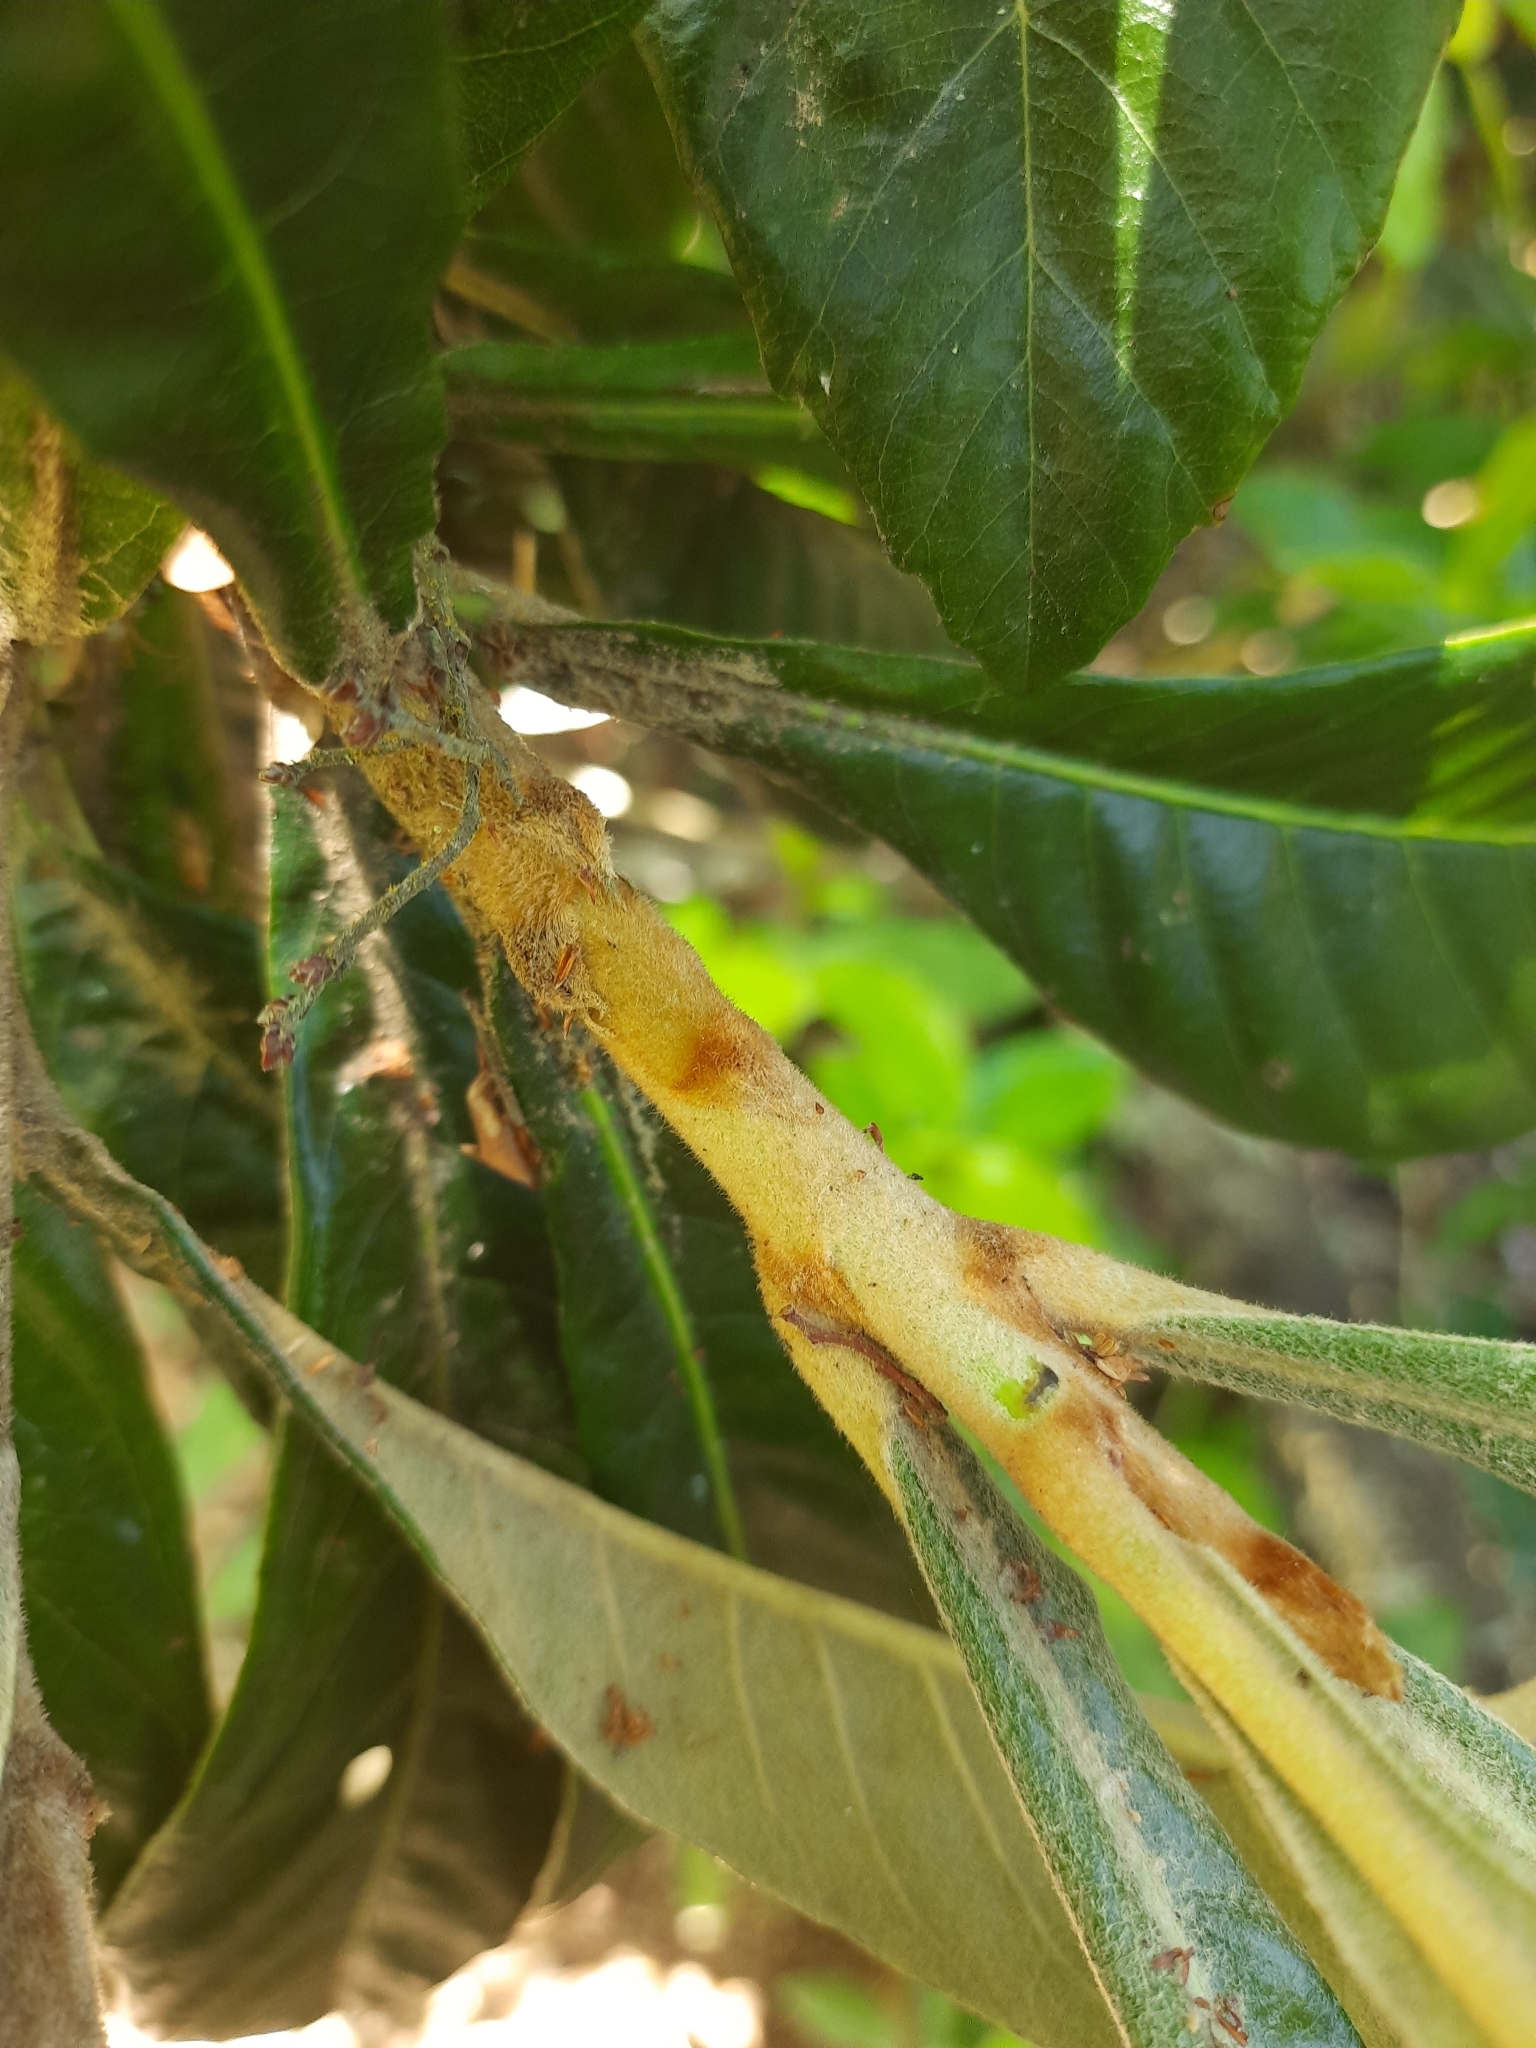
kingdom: Plantae
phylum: Tracheophyta
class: Magnoliopsida
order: Rosales
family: Rosaceae
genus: Rhaphiolepis
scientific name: Rhaphiolepis bibas
